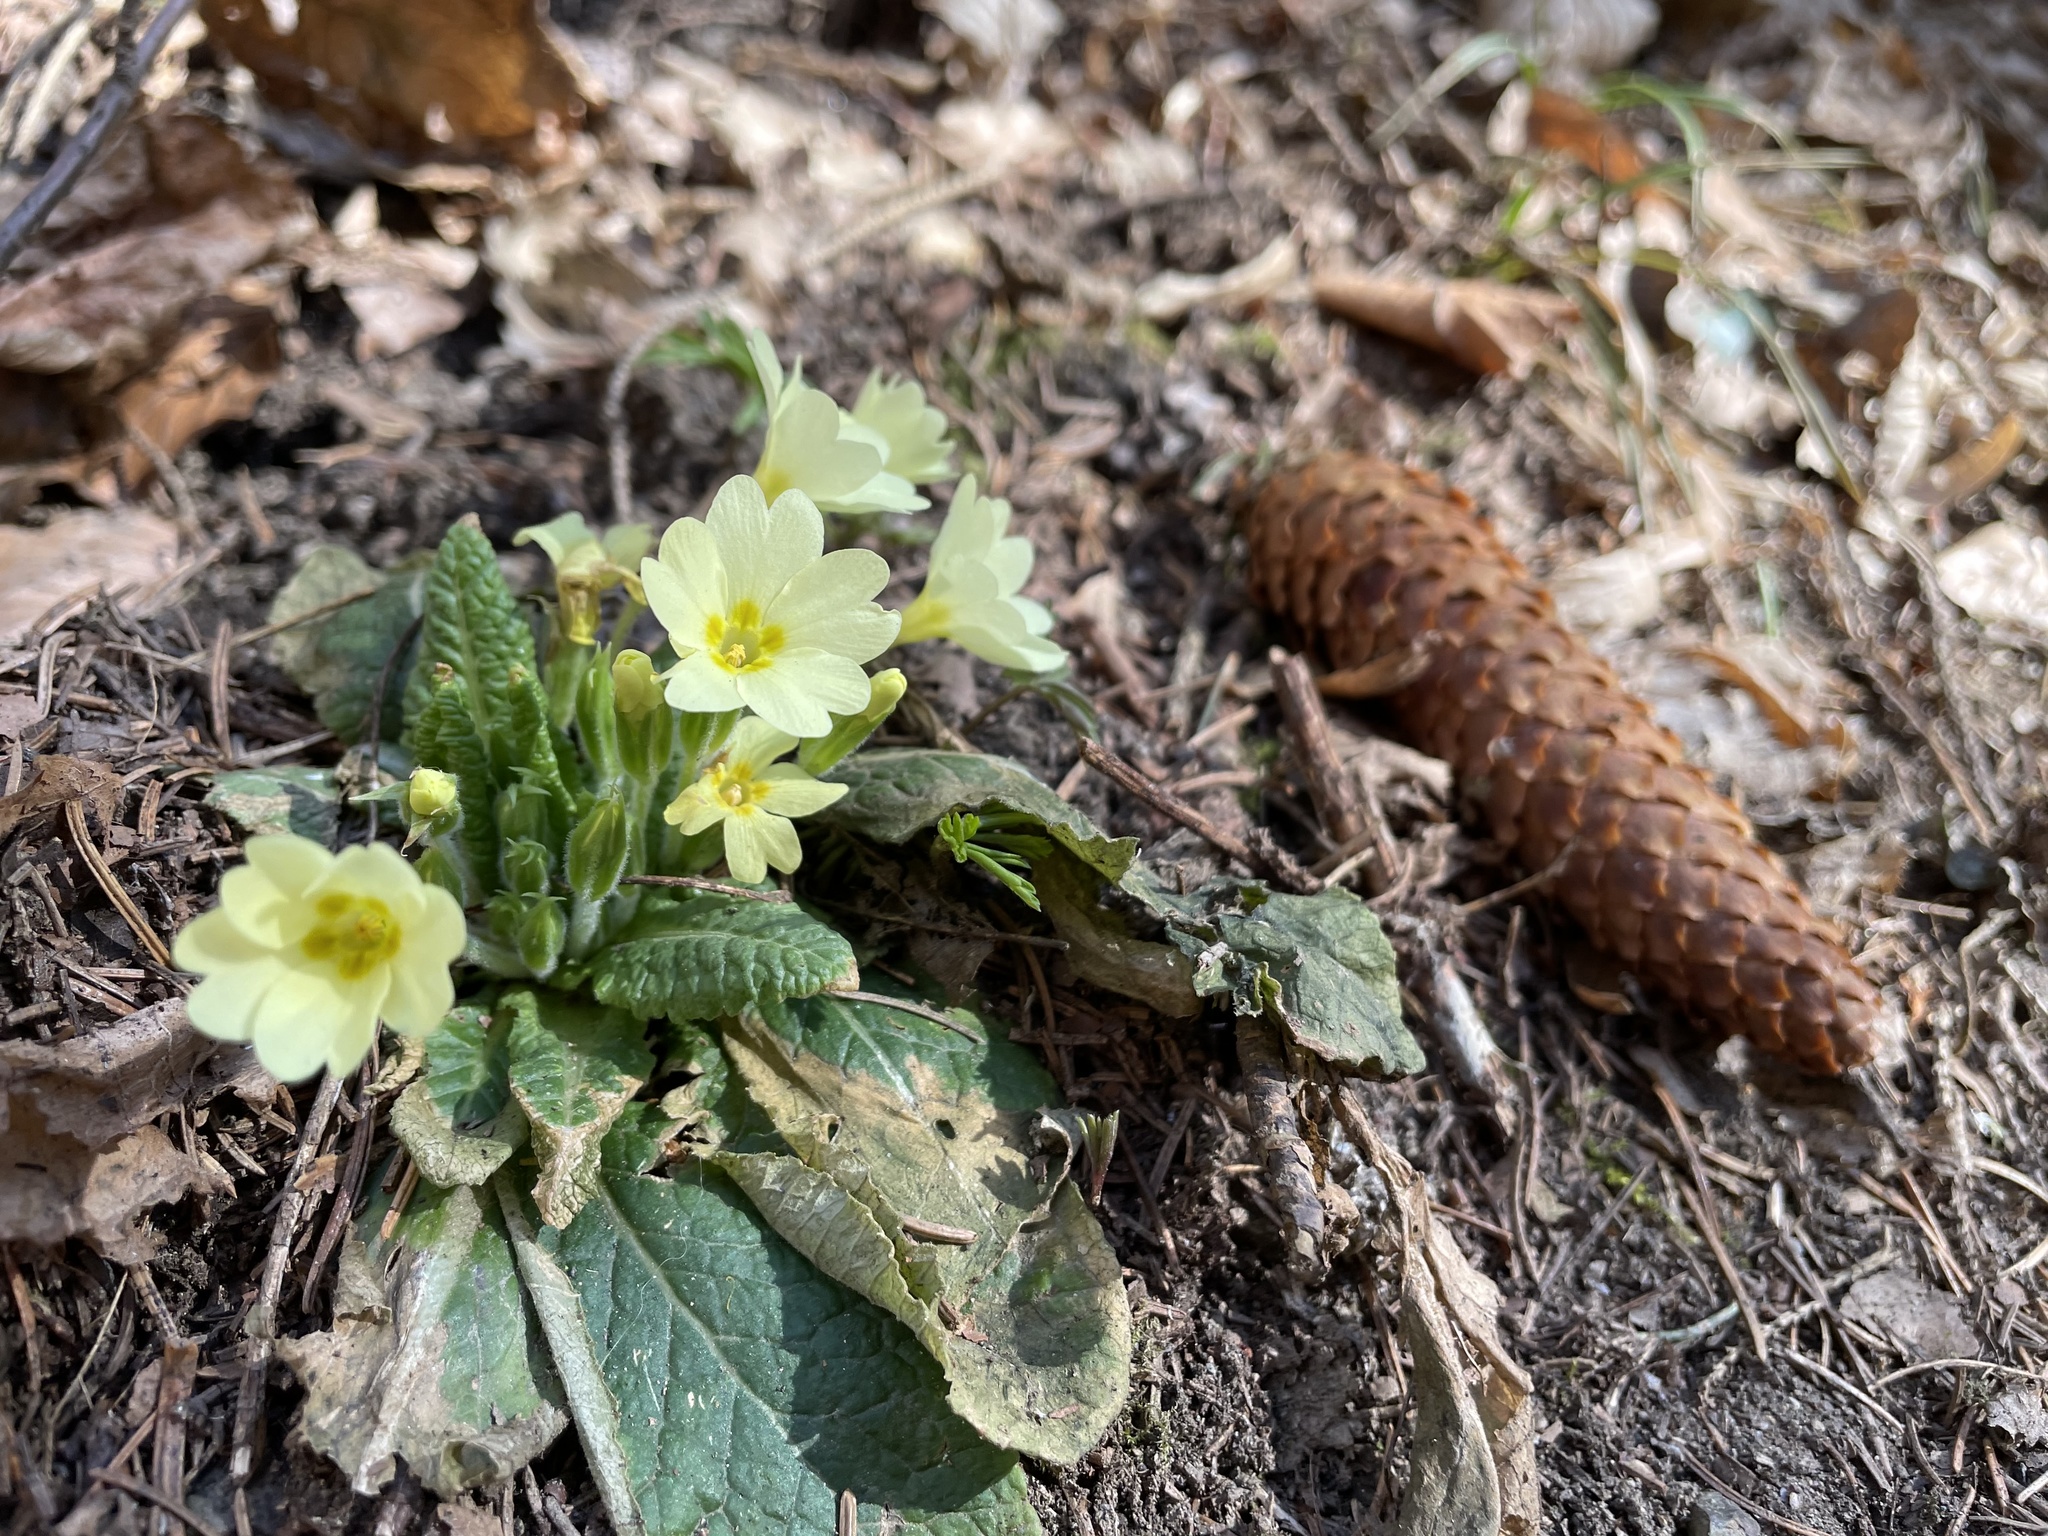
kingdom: Plantae
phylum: Tracheophyta
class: Magnoliopsida
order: Ericales
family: Primulaceae
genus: Primula
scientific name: Primula vulgaris
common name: Primrose
